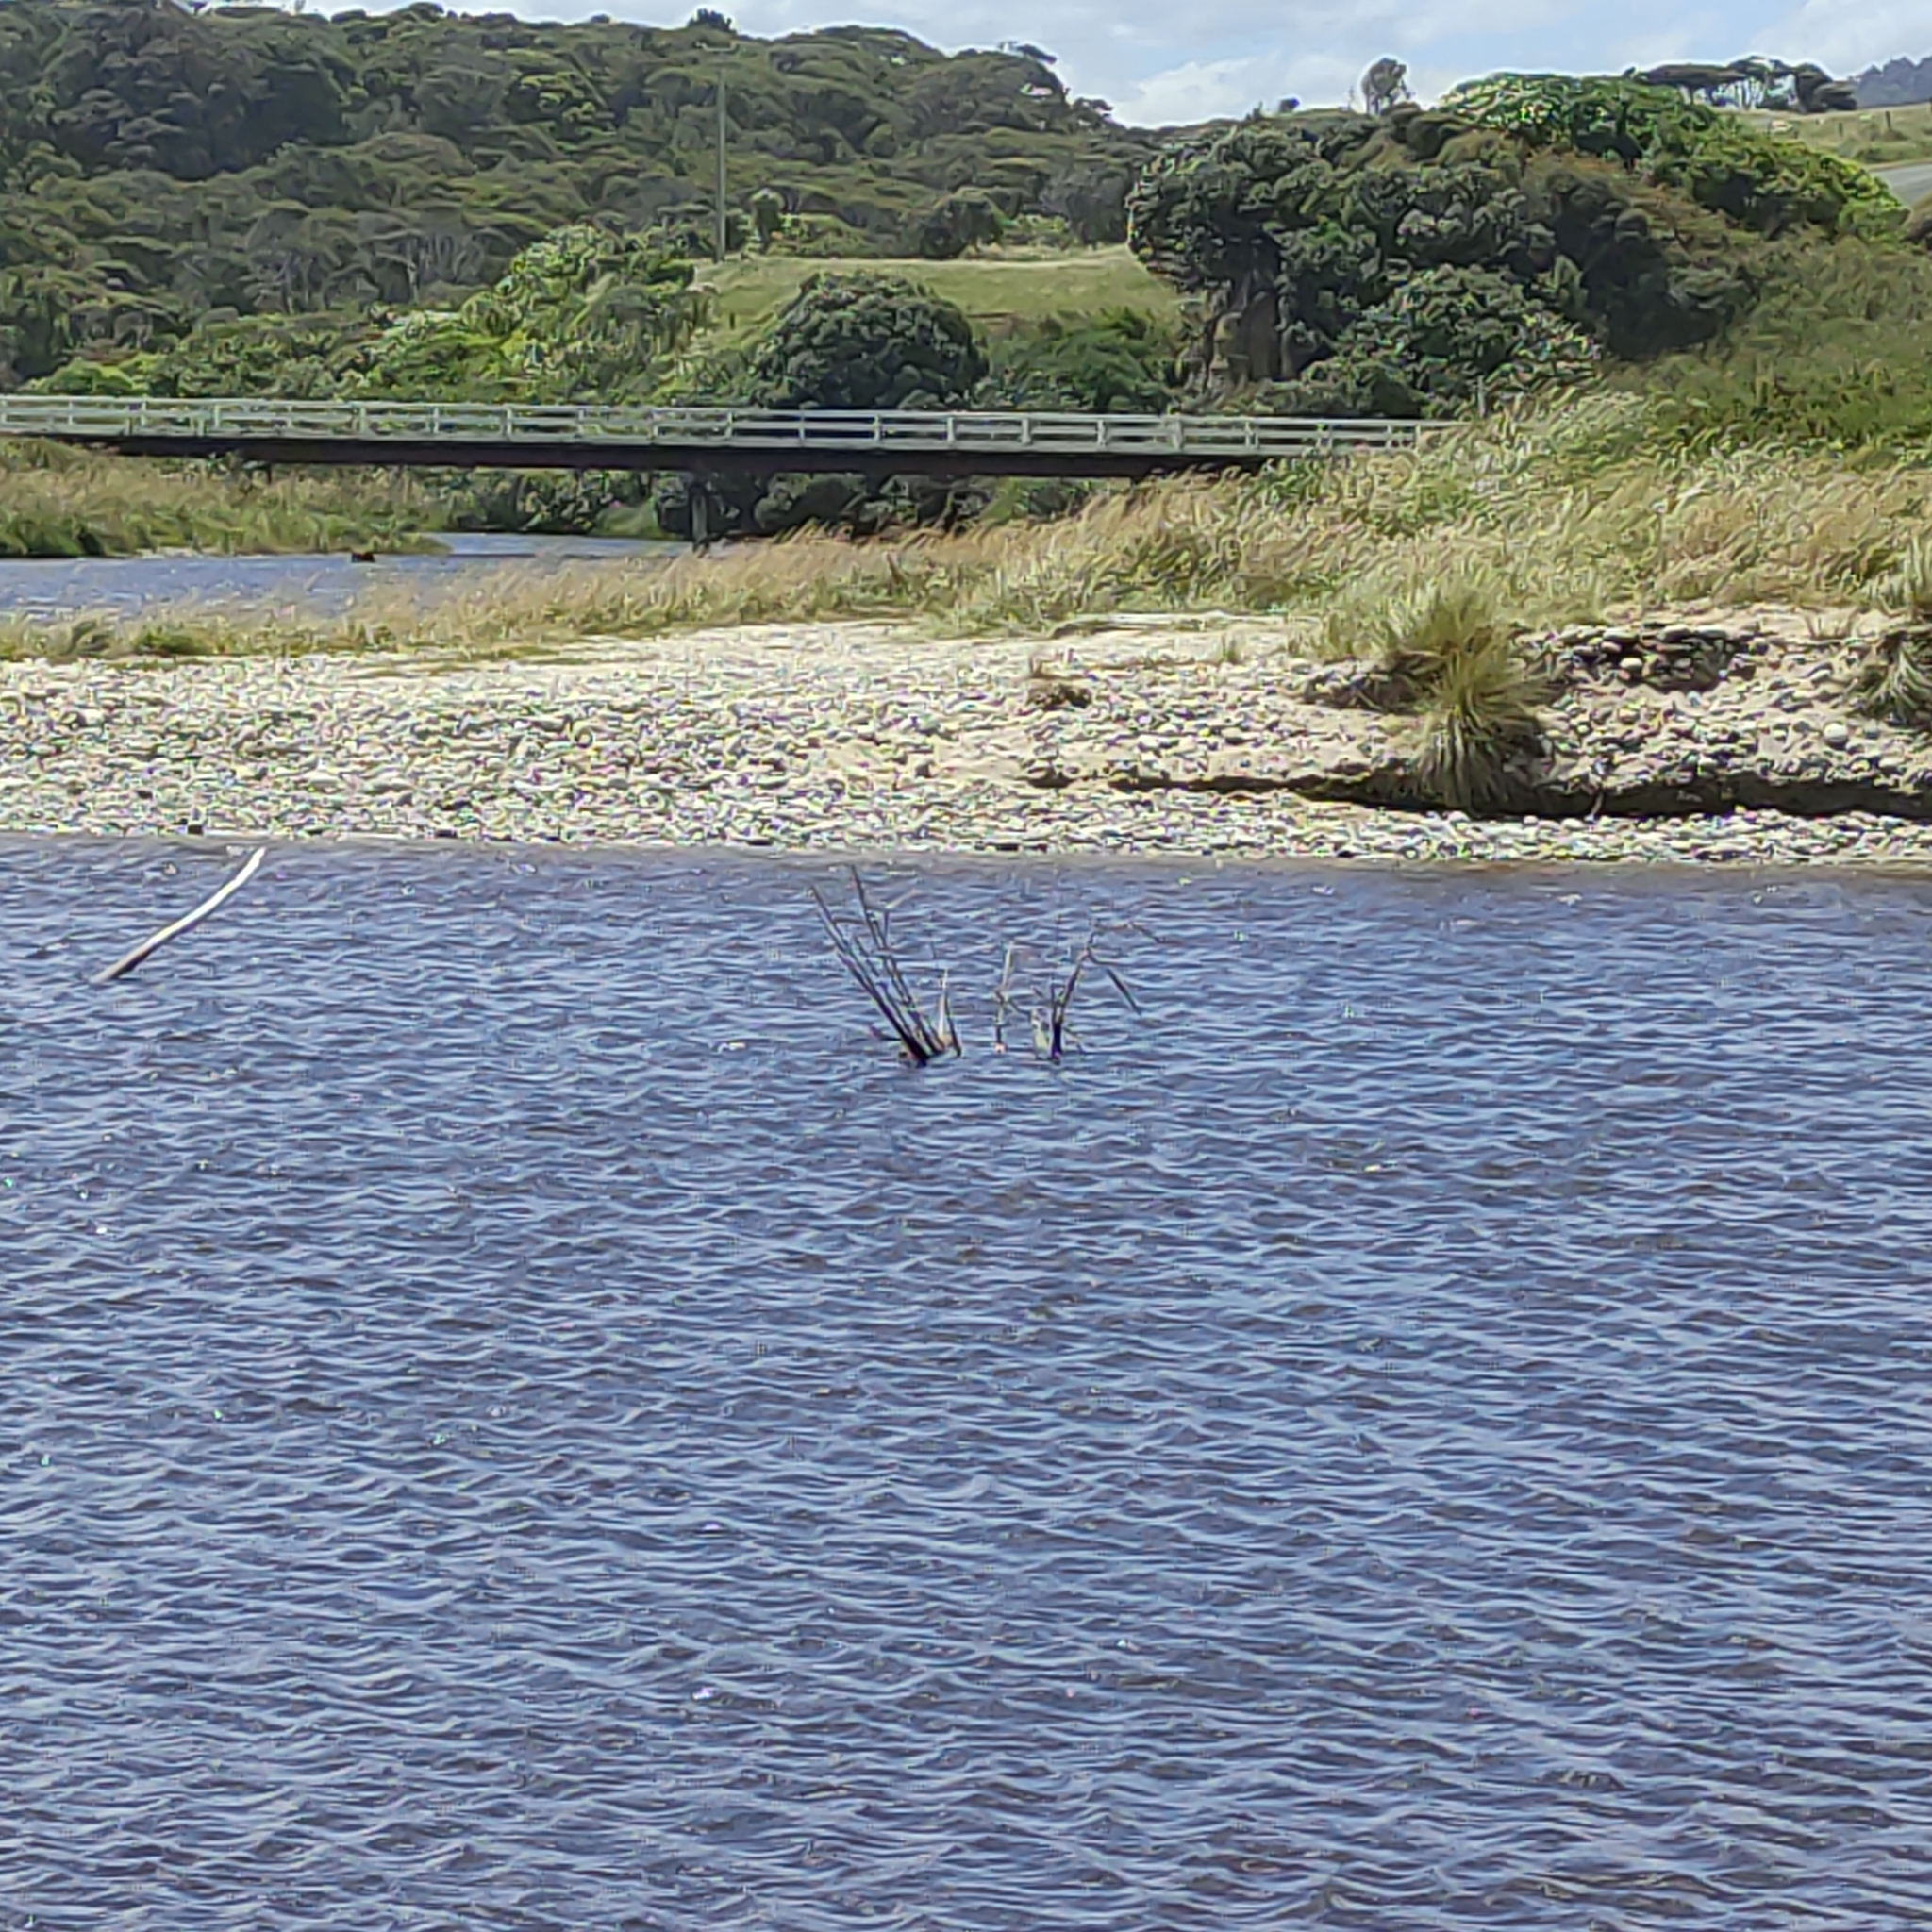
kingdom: Animalia
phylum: Chordata
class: Aves
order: Suliformes
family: Phalacrocoracidae
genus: Phalacrocorax
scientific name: Phalacrocorax varius
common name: Pied cormorant
